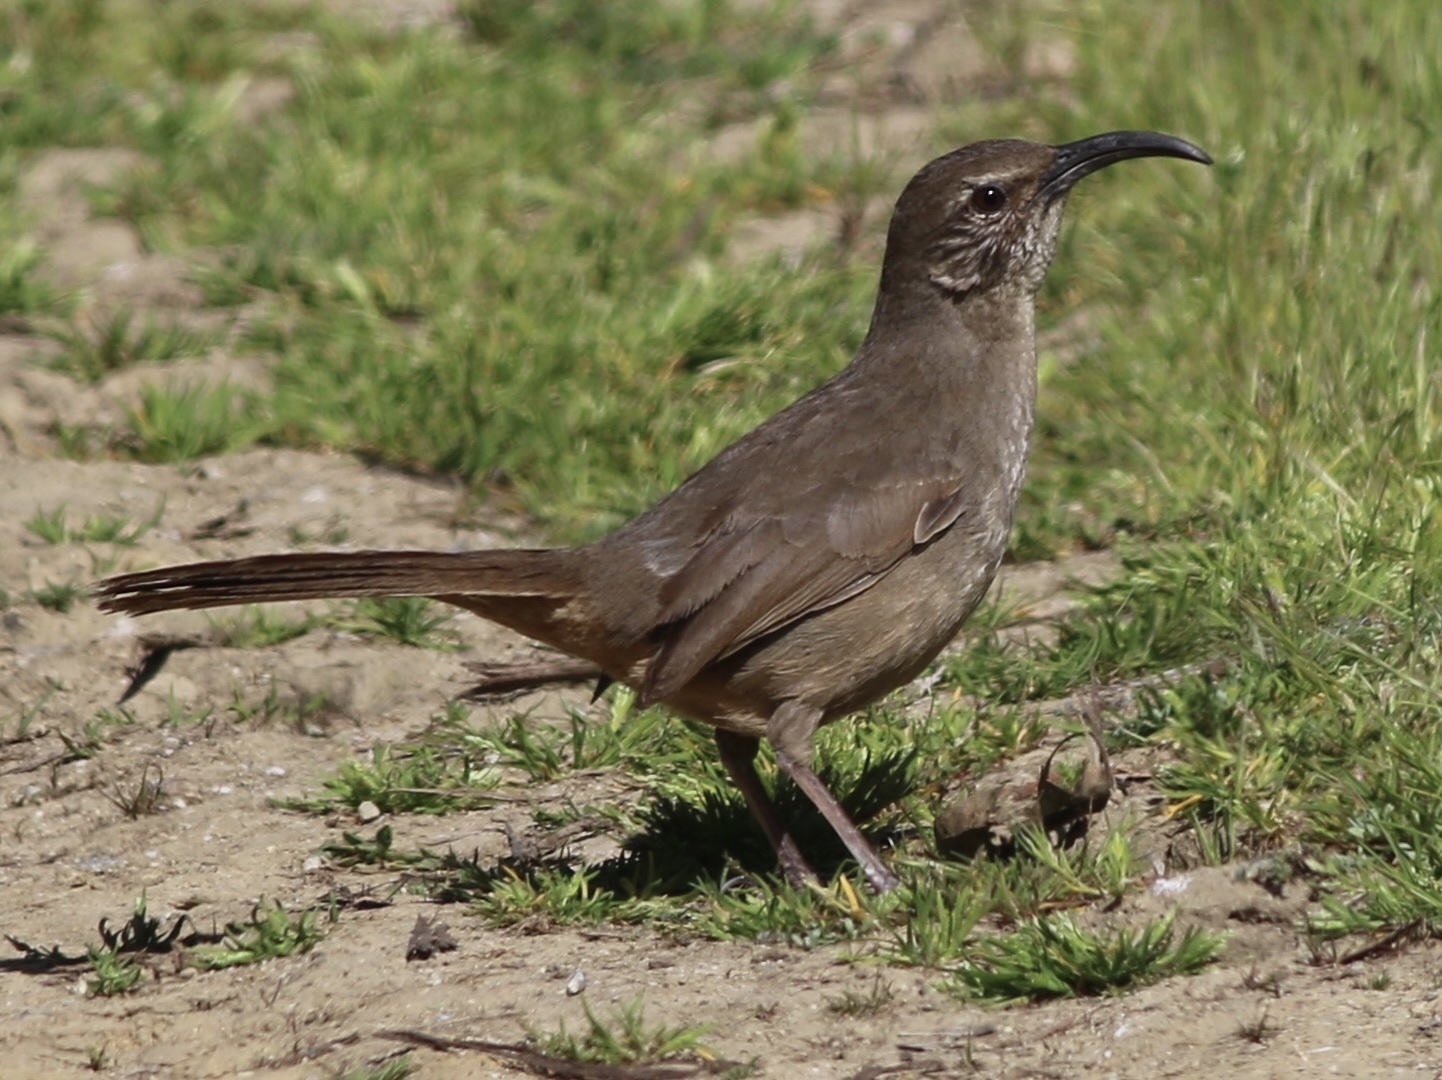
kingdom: Animalia
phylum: Chordata
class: Aves
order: Passeriformes
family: Mimidae
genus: Toxostoma
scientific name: Toxostoma redivivum
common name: California thrasher
